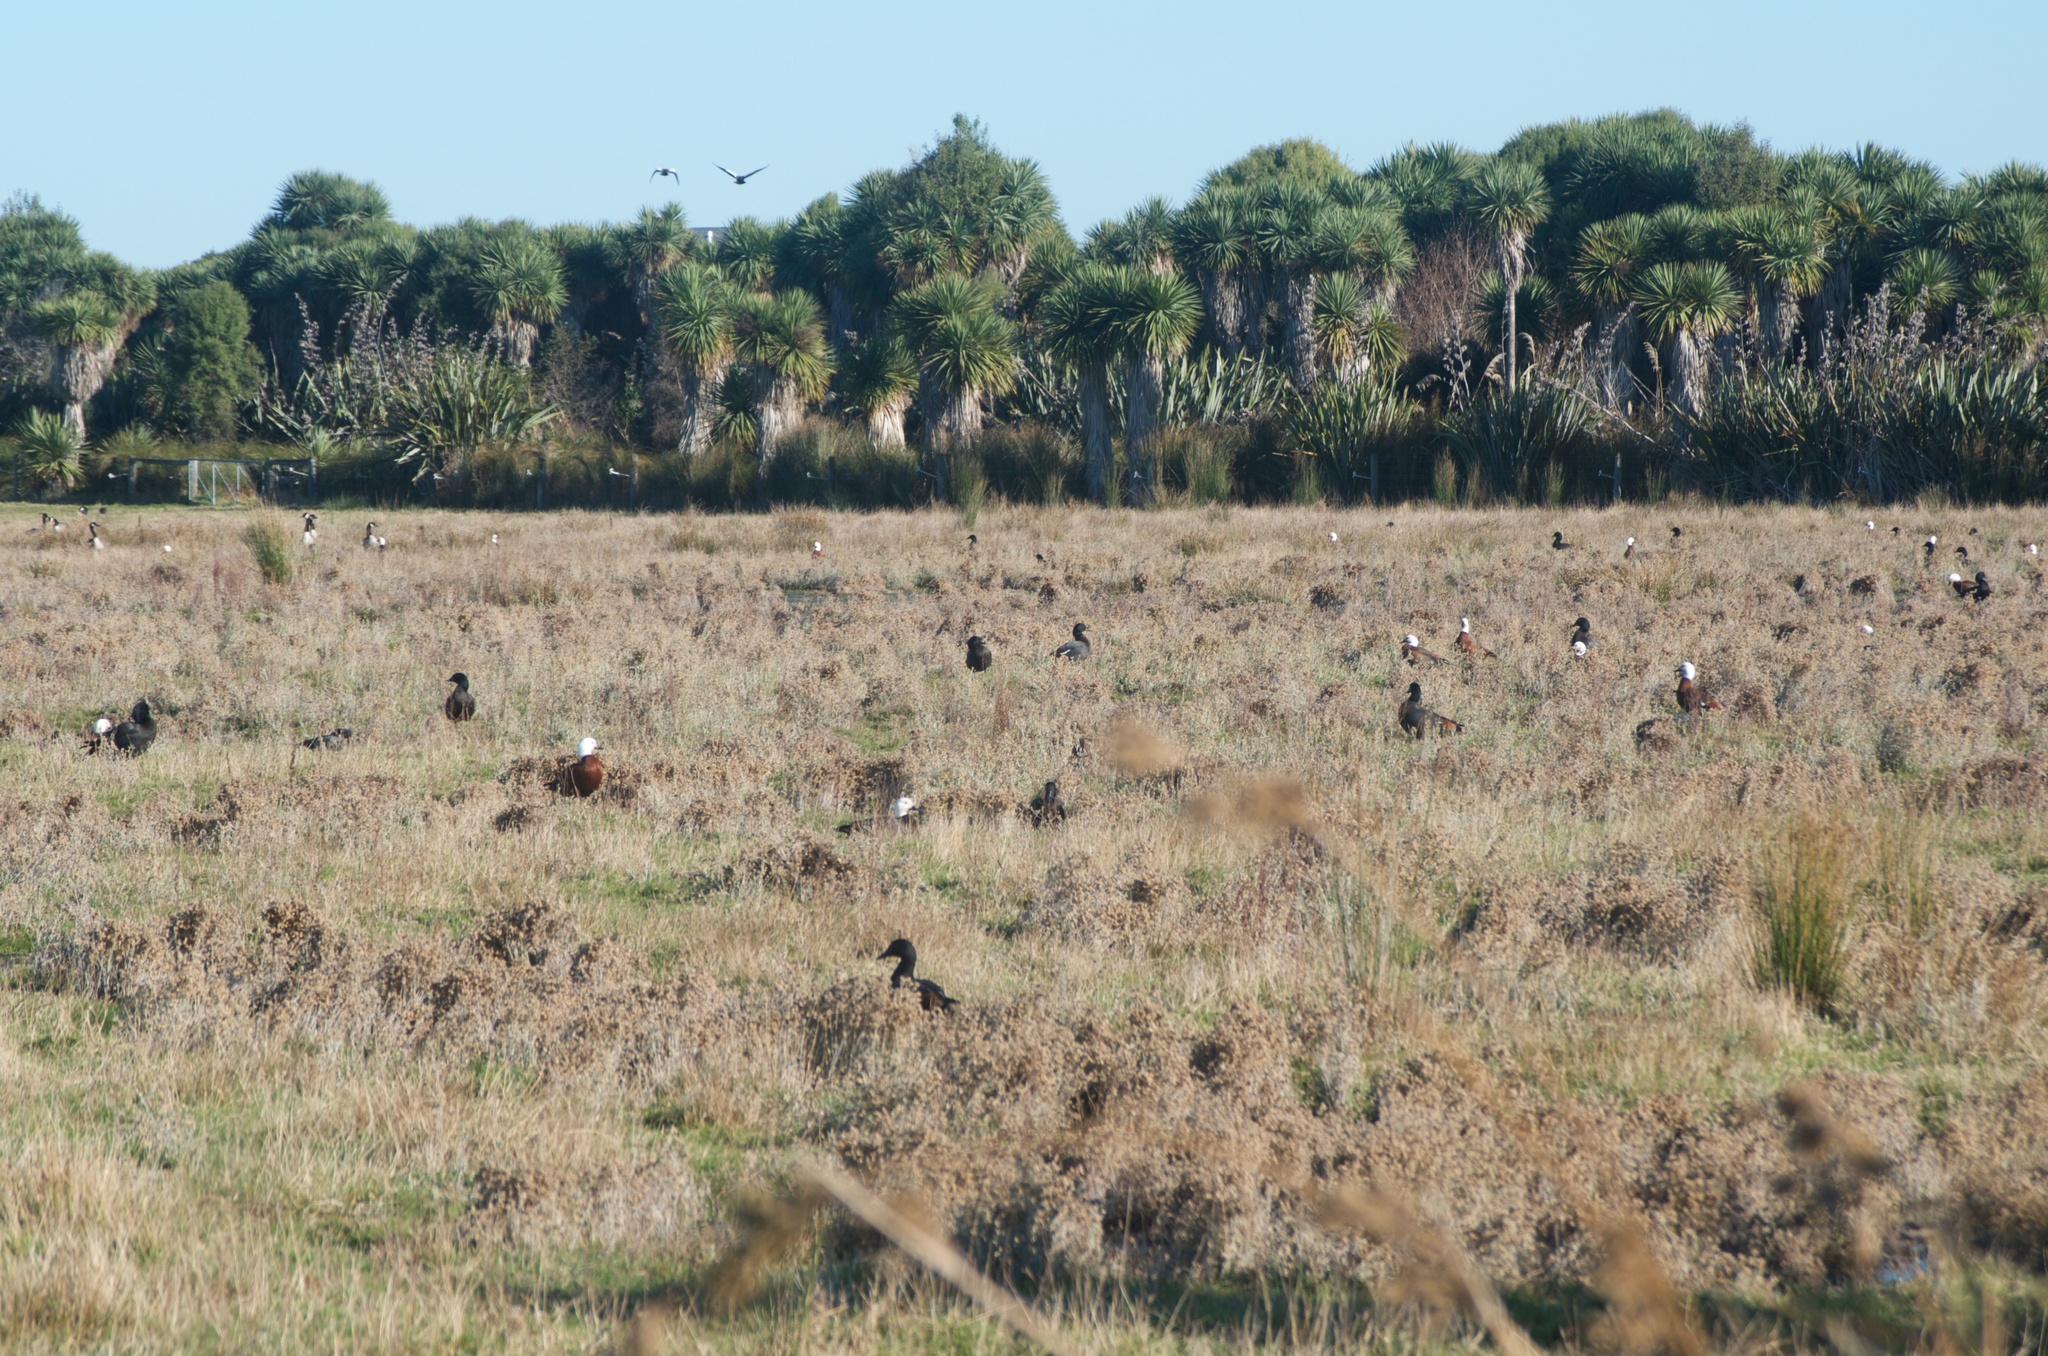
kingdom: Animalia
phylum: Chordata
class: Aves
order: Anseriformes
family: Anatidae
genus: Tadorna
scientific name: Tadorna variegata
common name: Paradise shelduck
